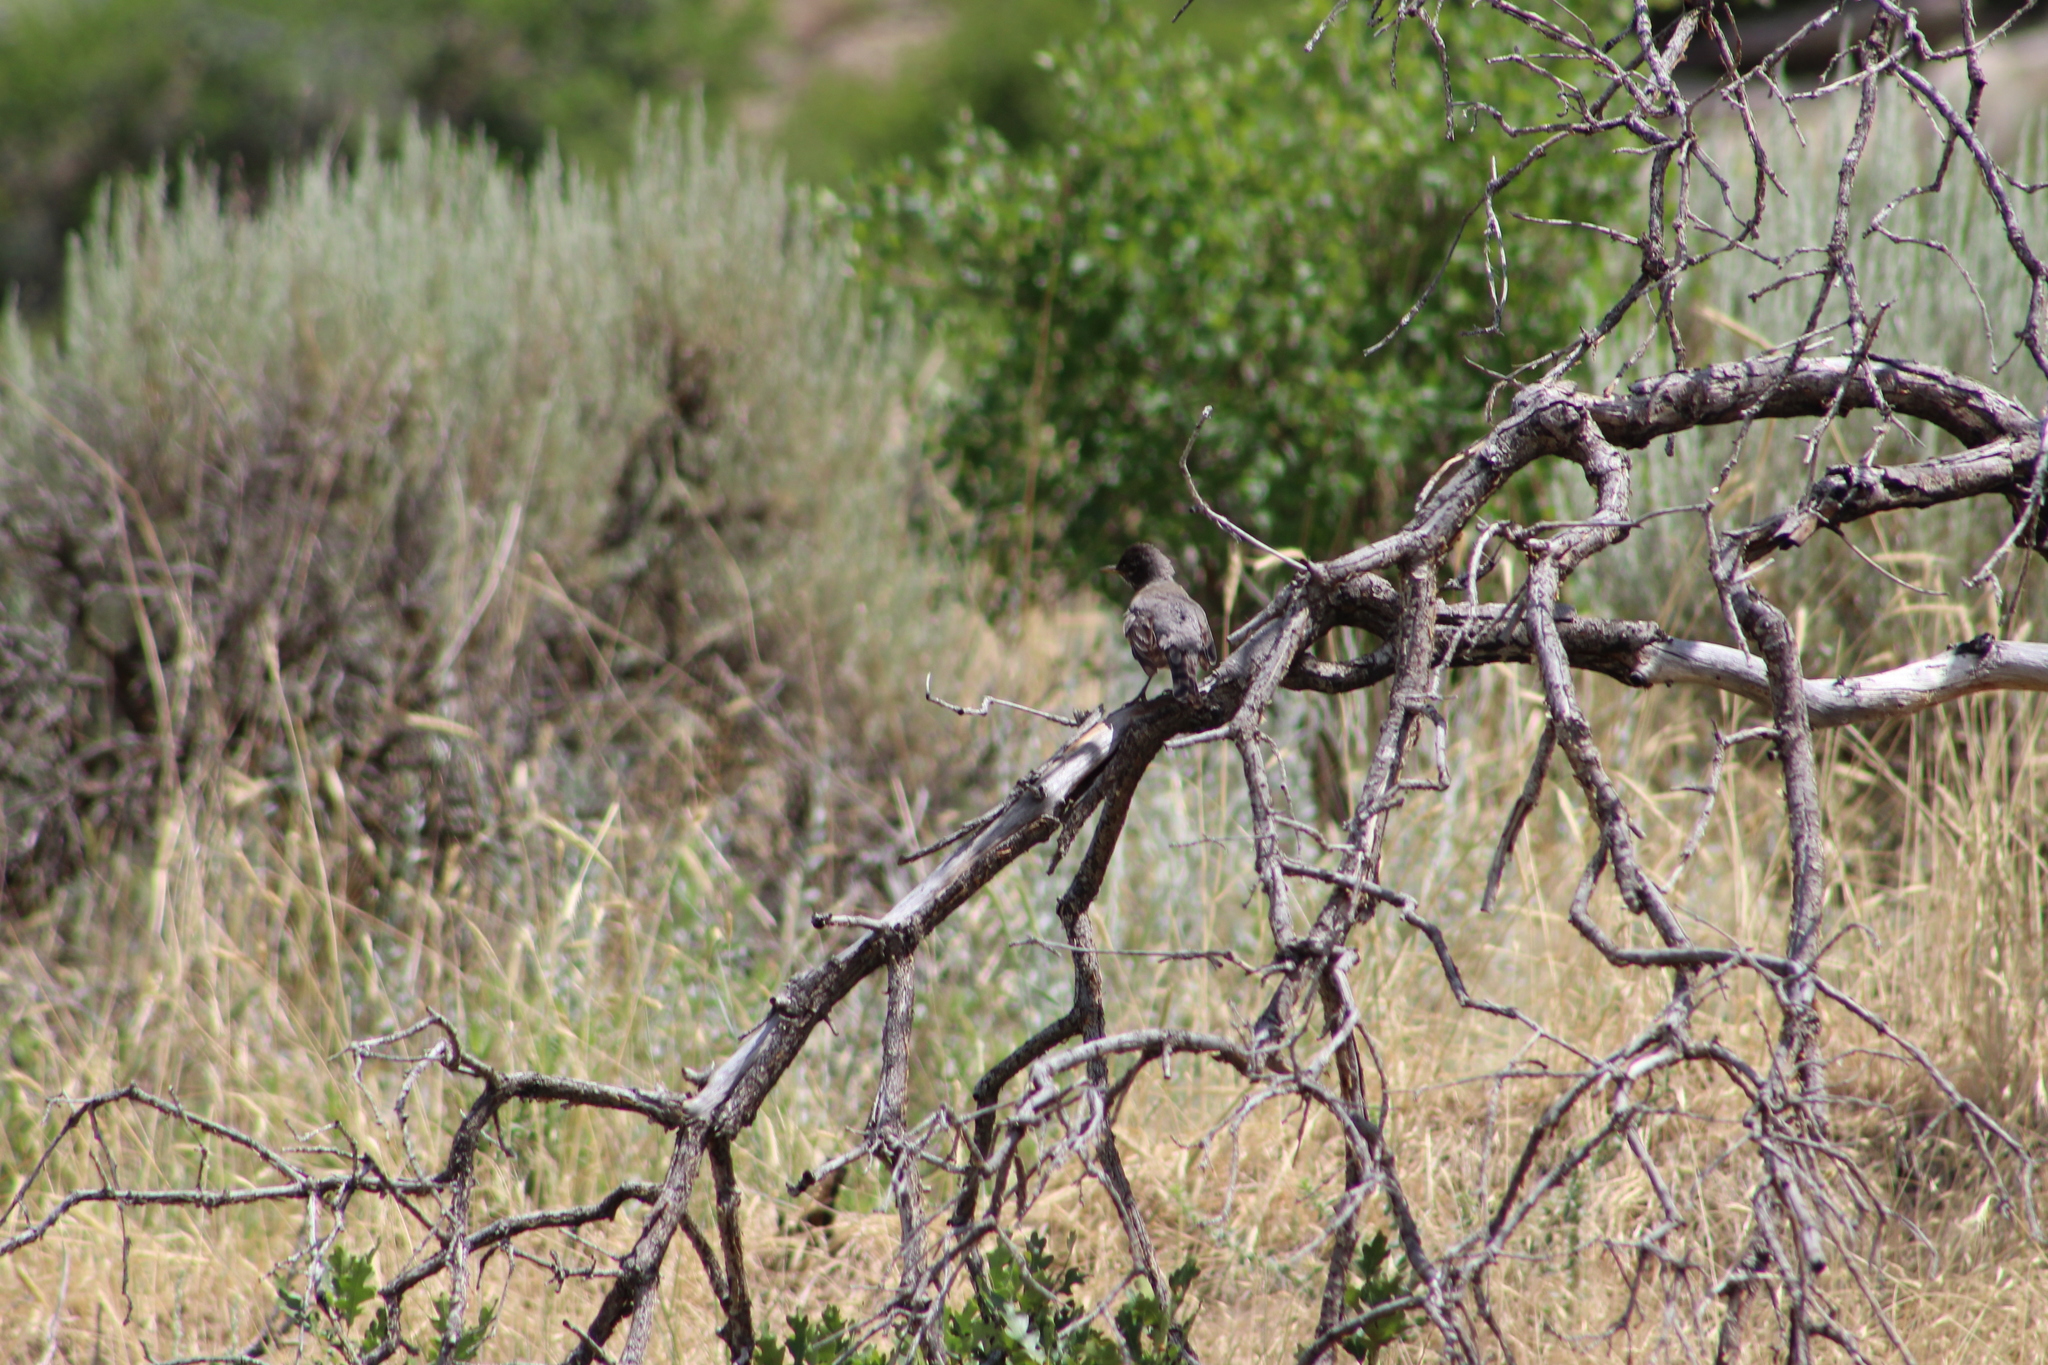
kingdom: Animalia
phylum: Chordata
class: Aves
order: Passeriformes
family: Turdidae
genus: Turdus
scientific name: Turdus migratorius
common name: American robin
